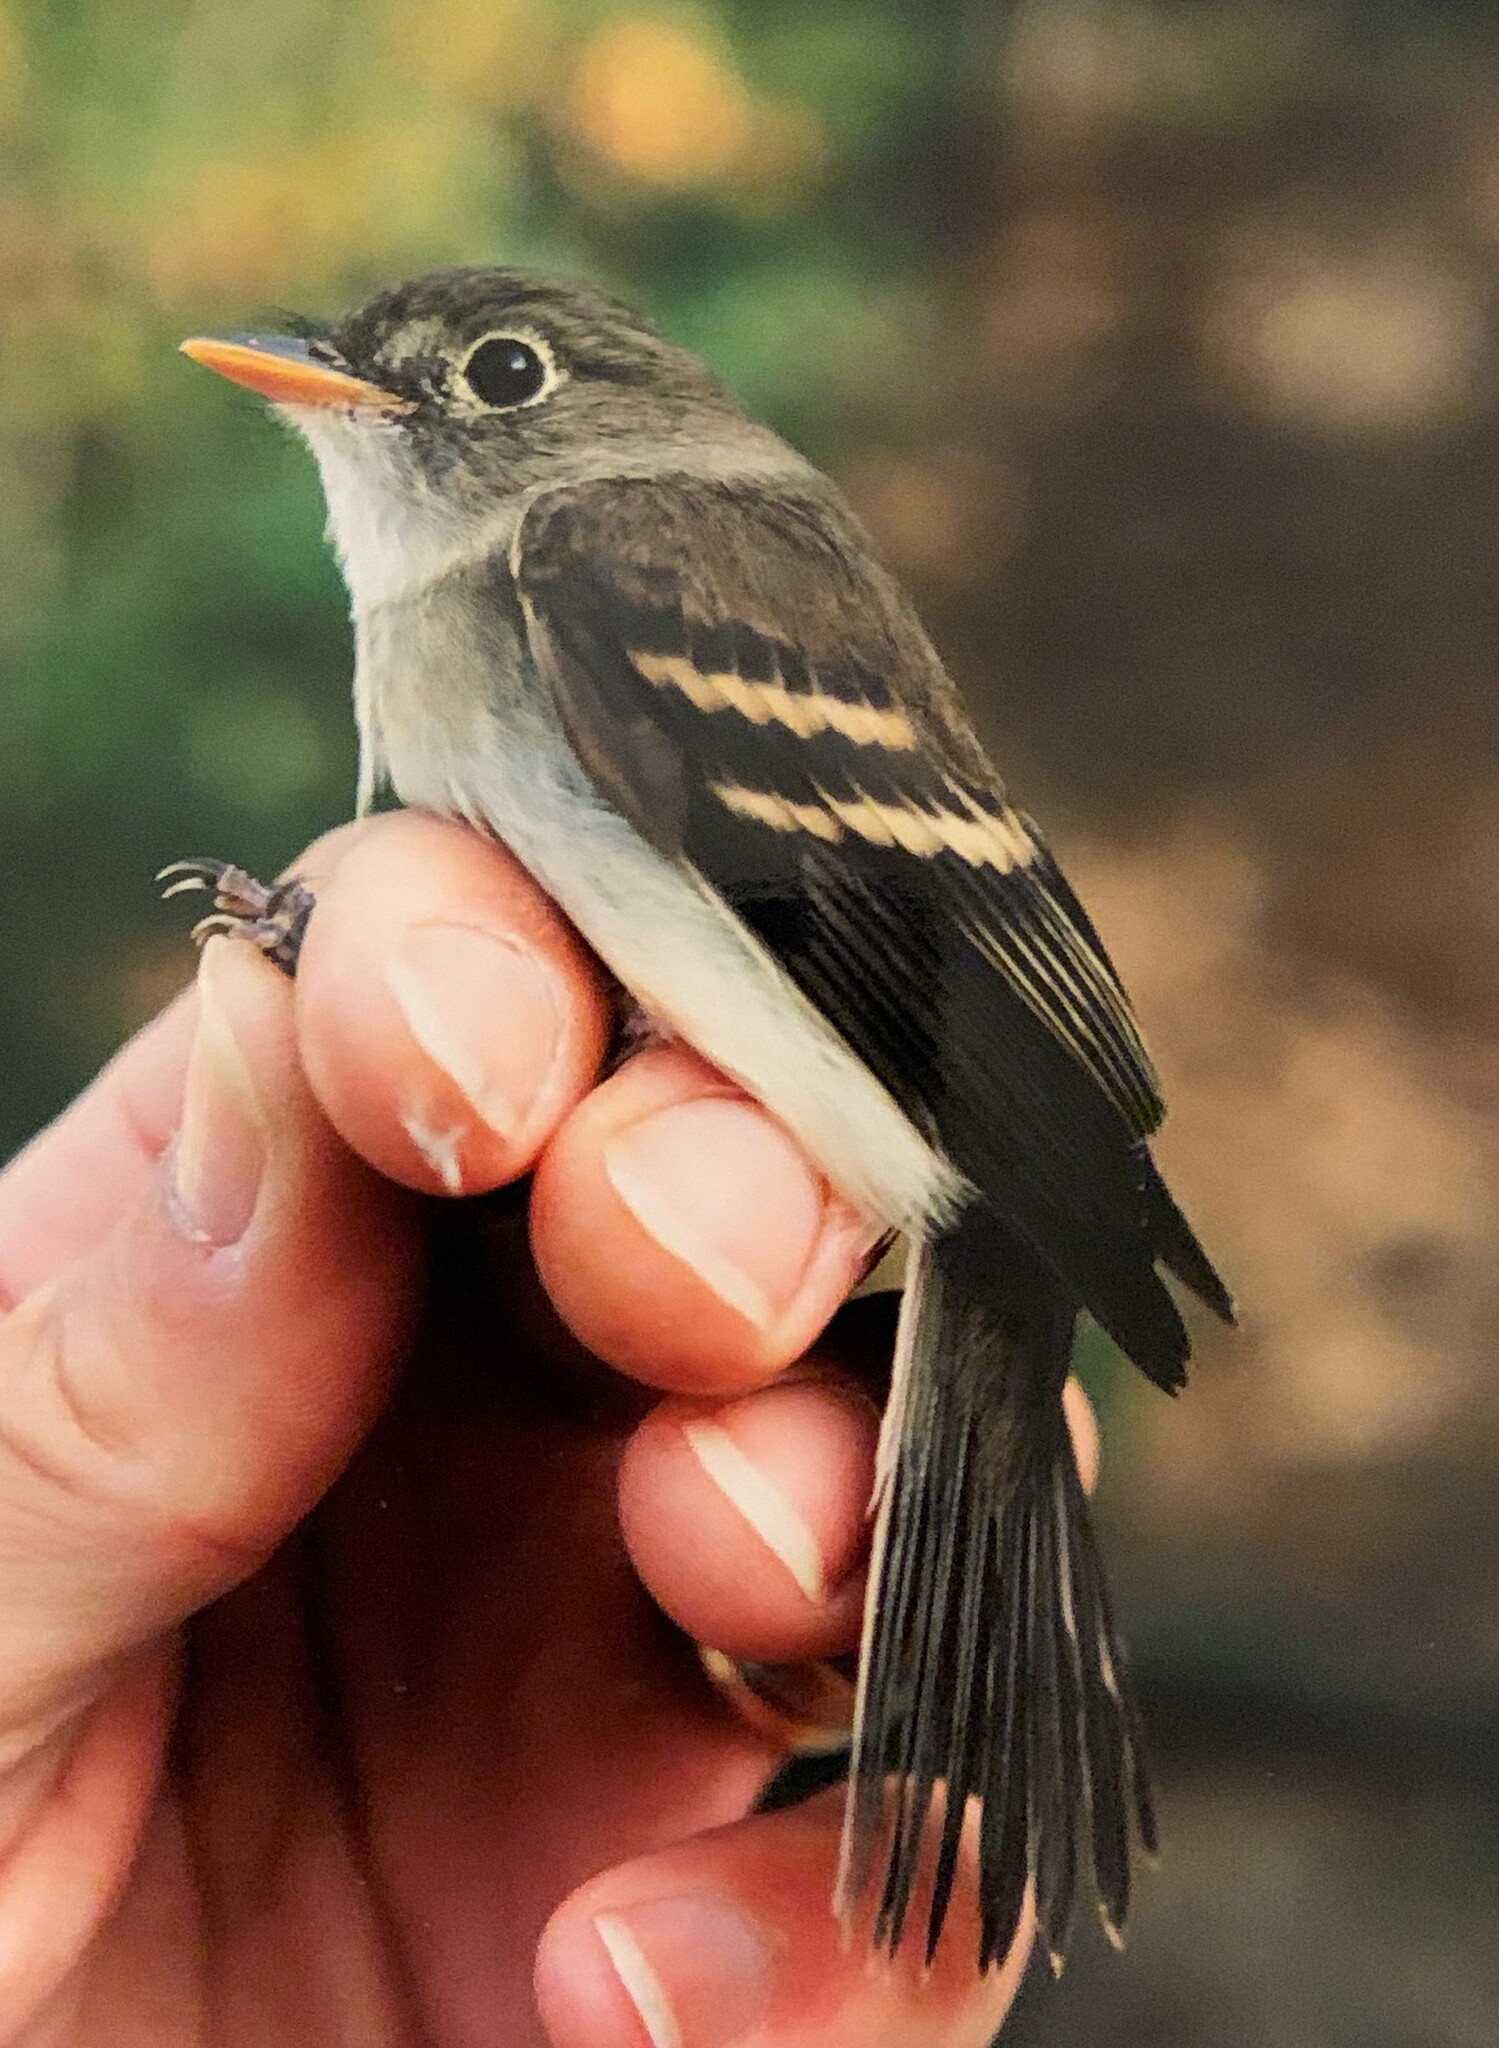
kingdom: Animalia
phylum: Chordata
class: Aves
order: Passeriformes
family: Tyrannidae
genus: Empidonax
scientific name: Empidonax alnorum
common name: Alder flycatcher
